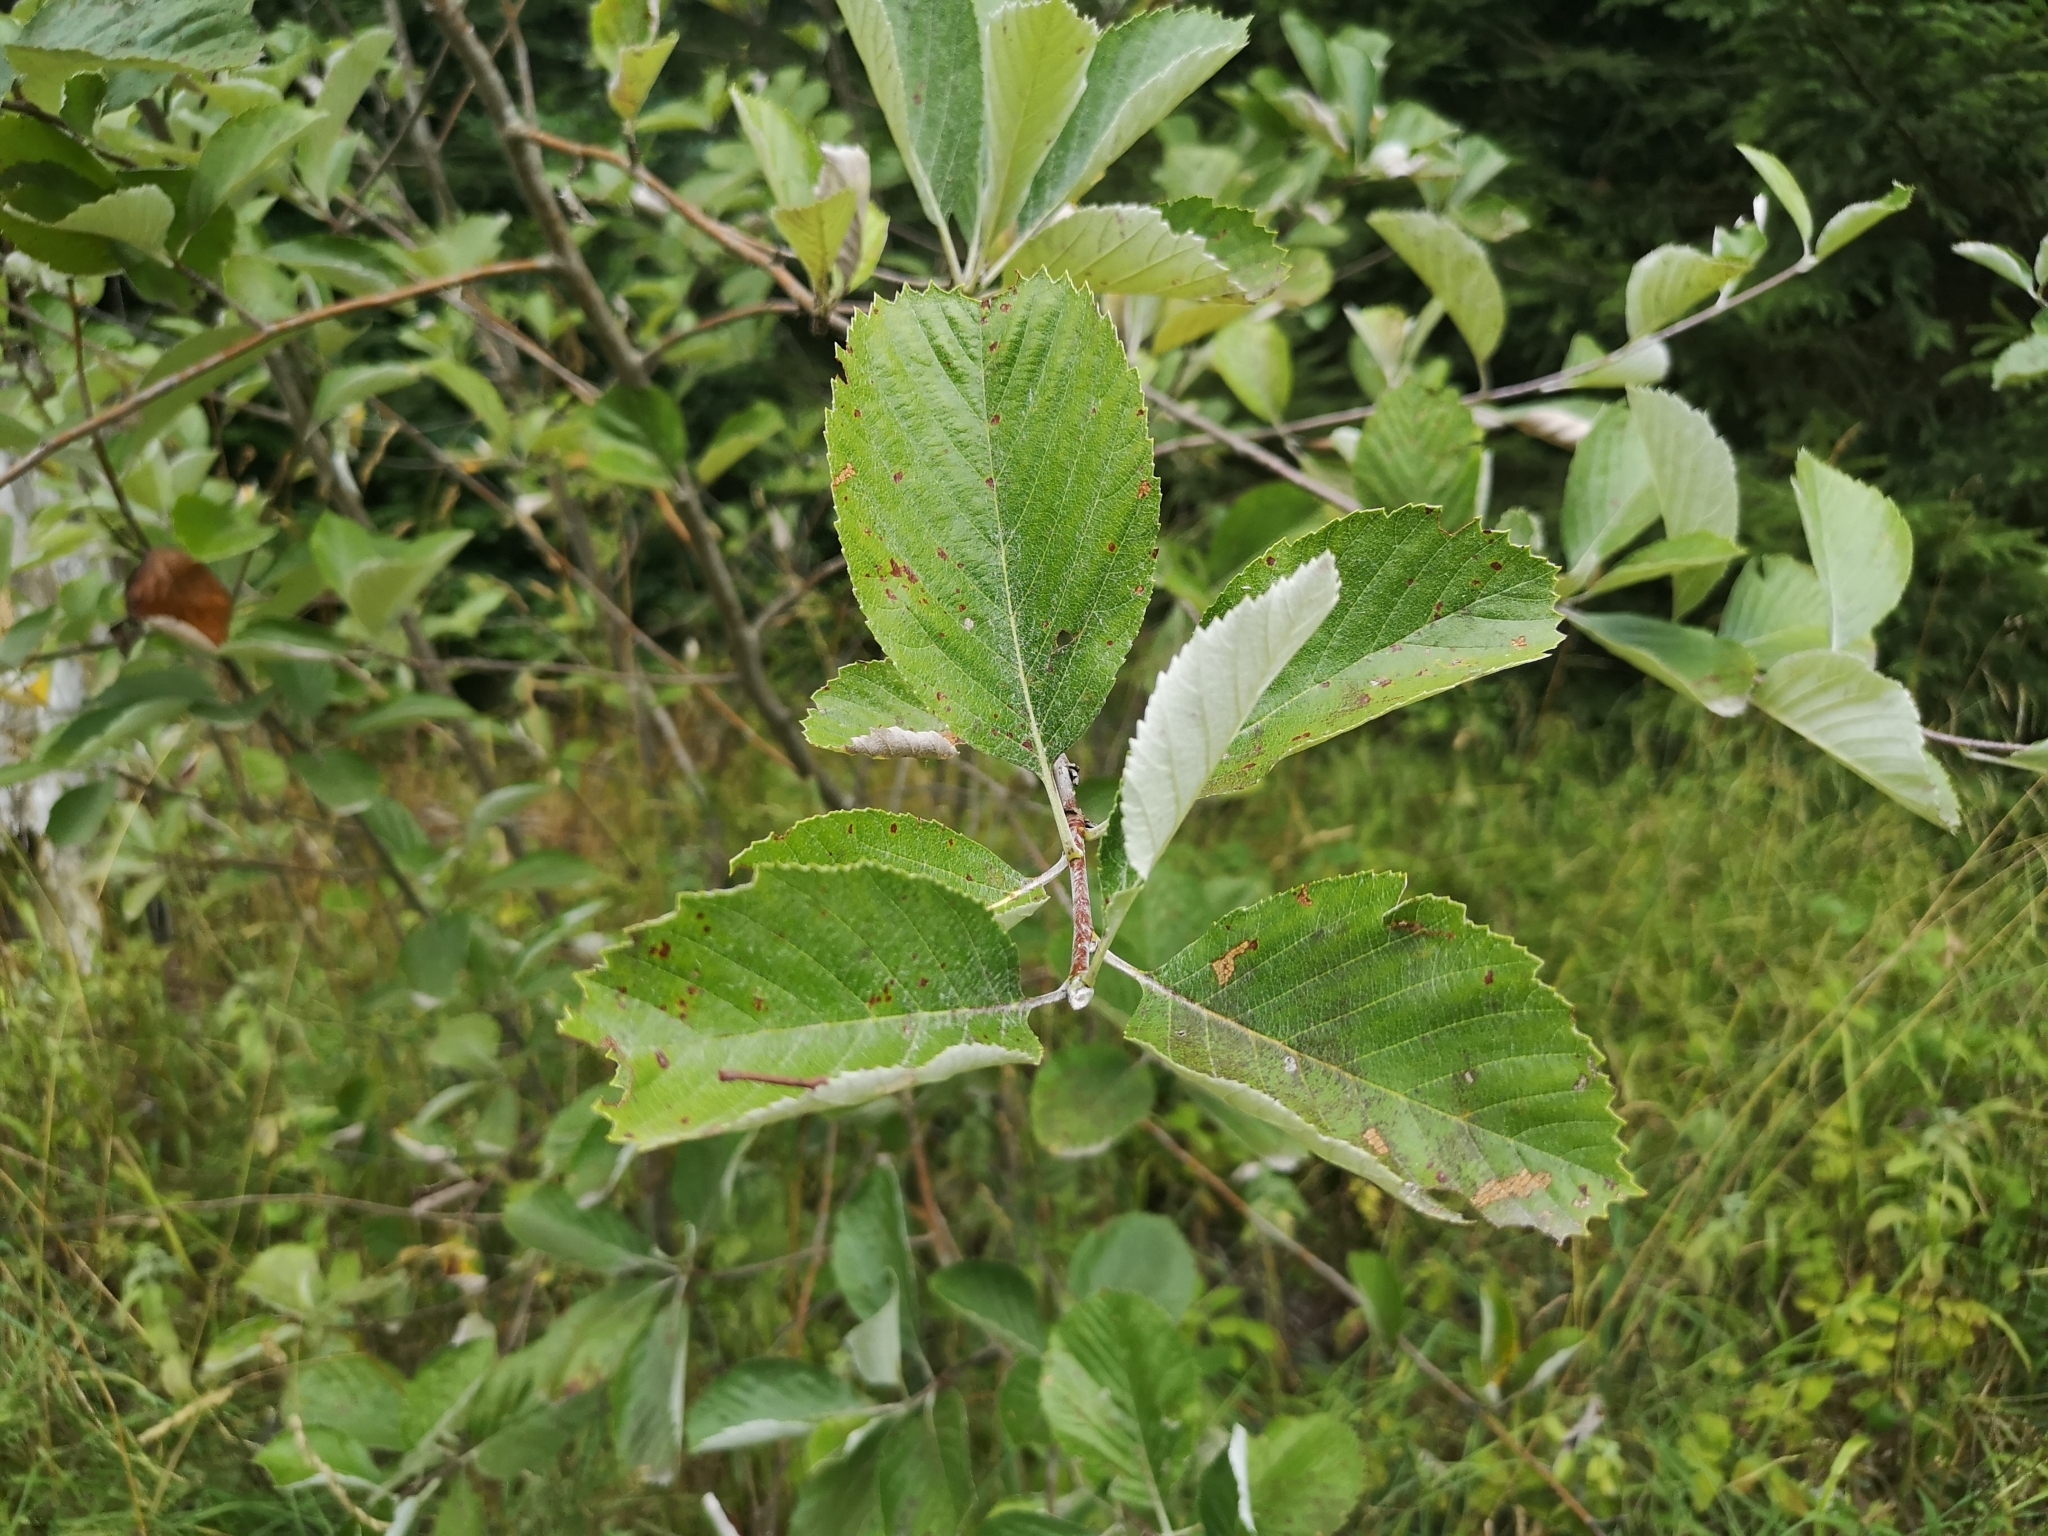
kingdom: Plantae
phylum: Tracheophyta
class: Magnoliopsida
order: Rosales
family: Rosaceae
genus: Aria
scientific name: Aria collina
